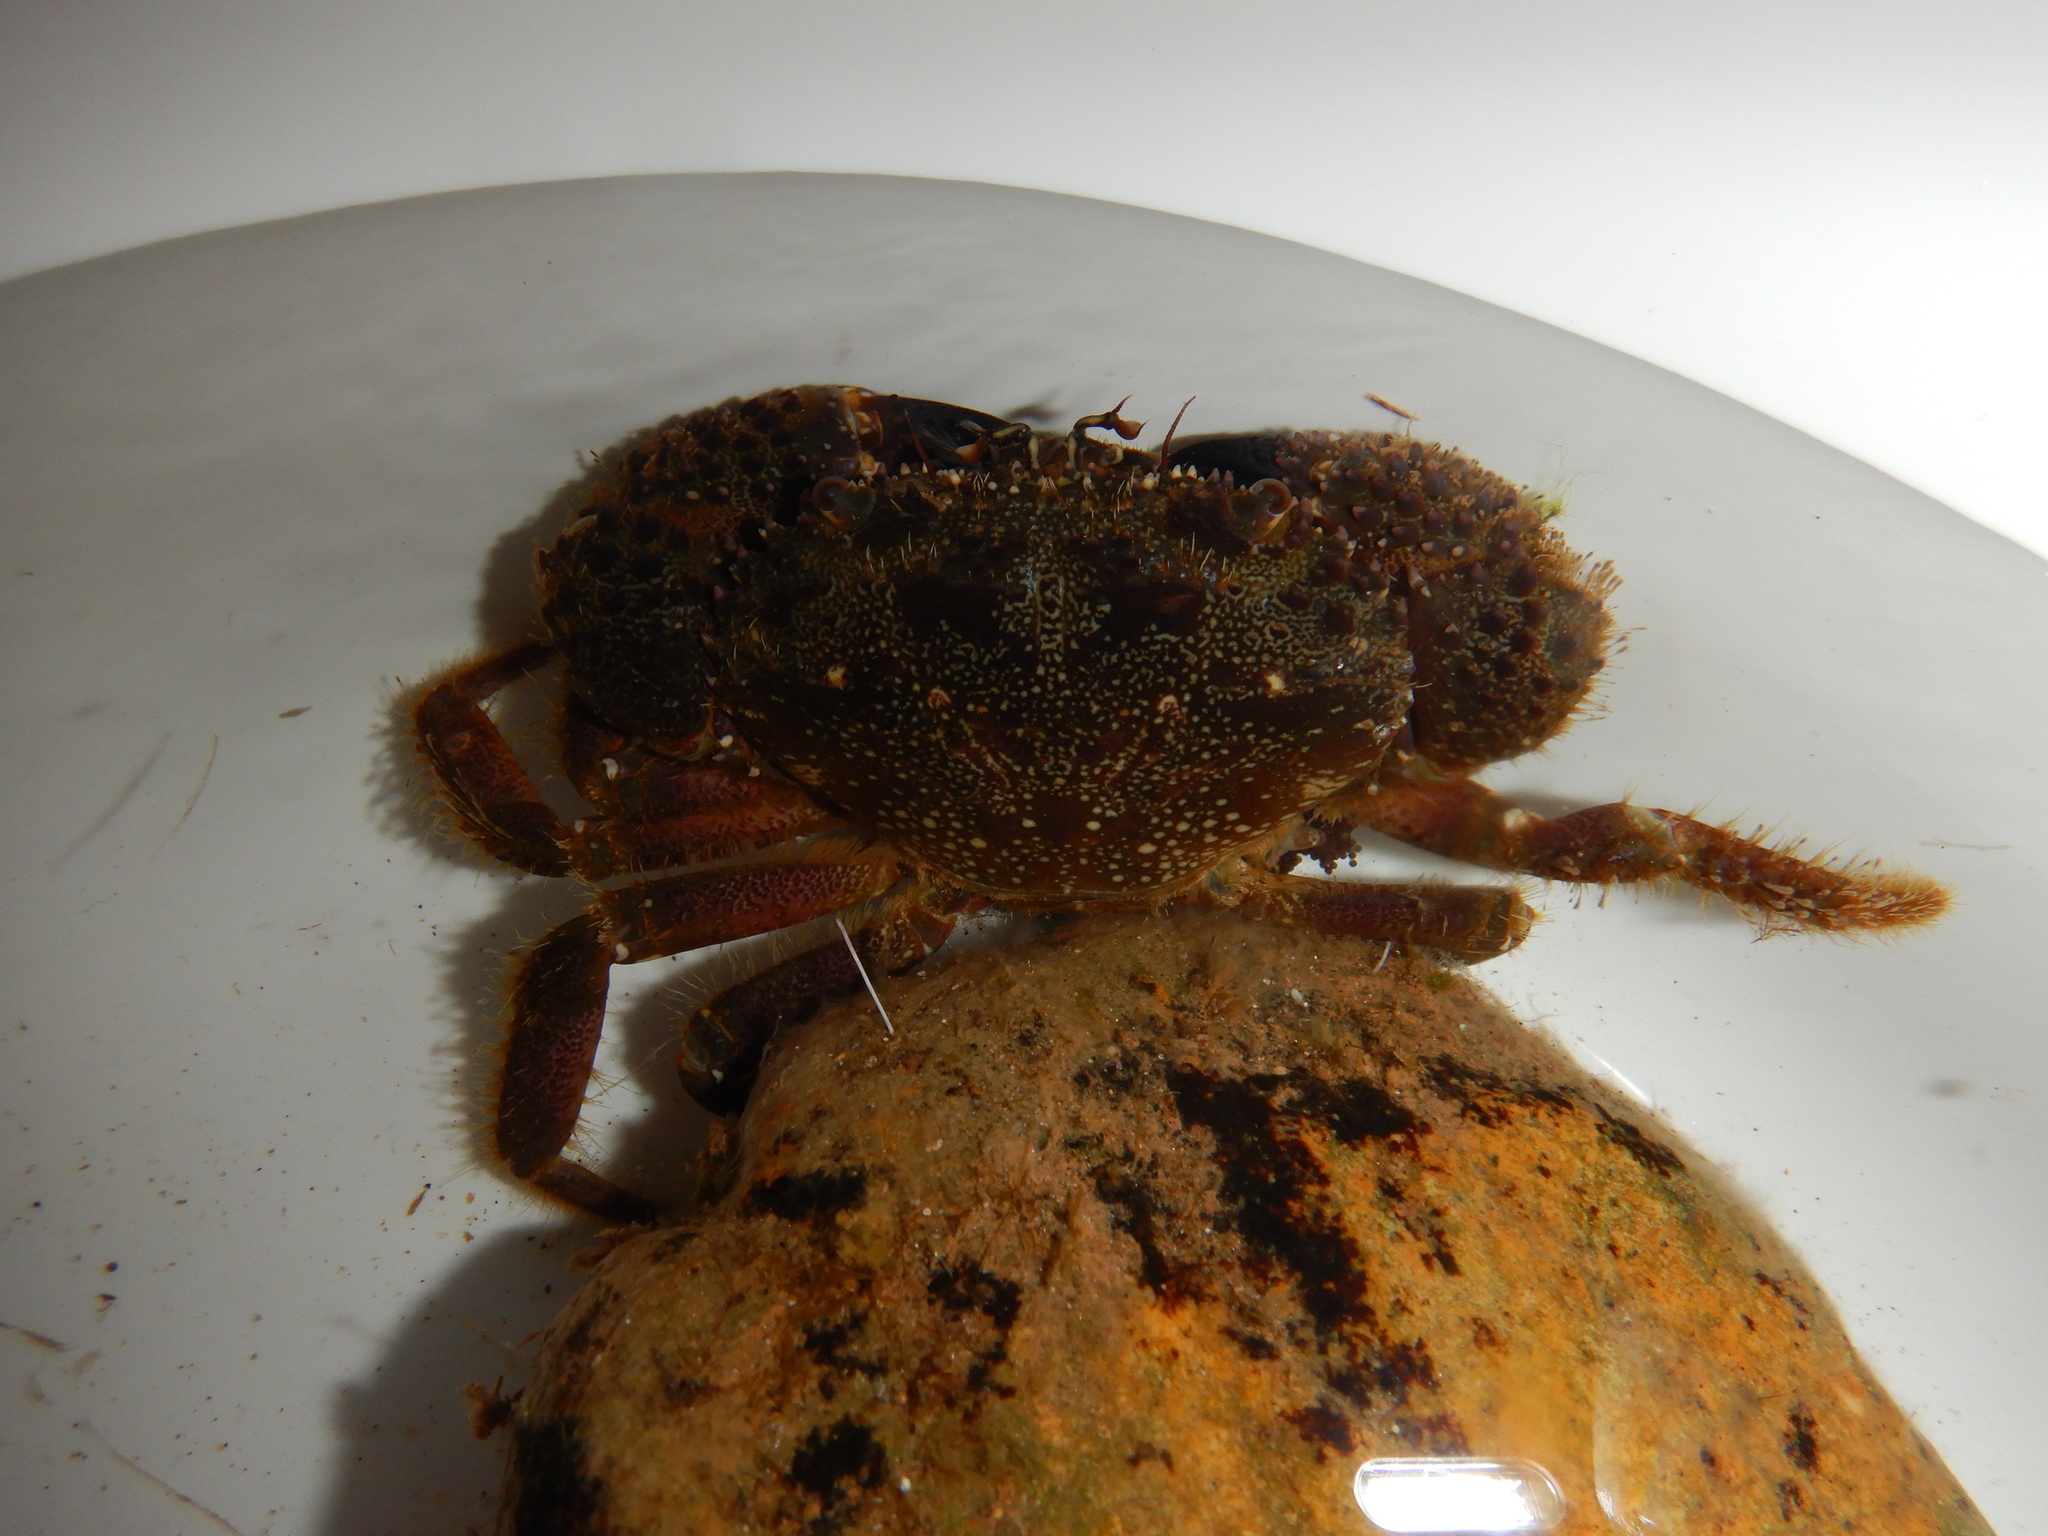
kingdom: Animalia
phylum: Arthropoda
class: Malacostraca
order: Decapoda
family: Eriphiidae
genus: Eriphia
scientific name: Eriphia verrucosa
